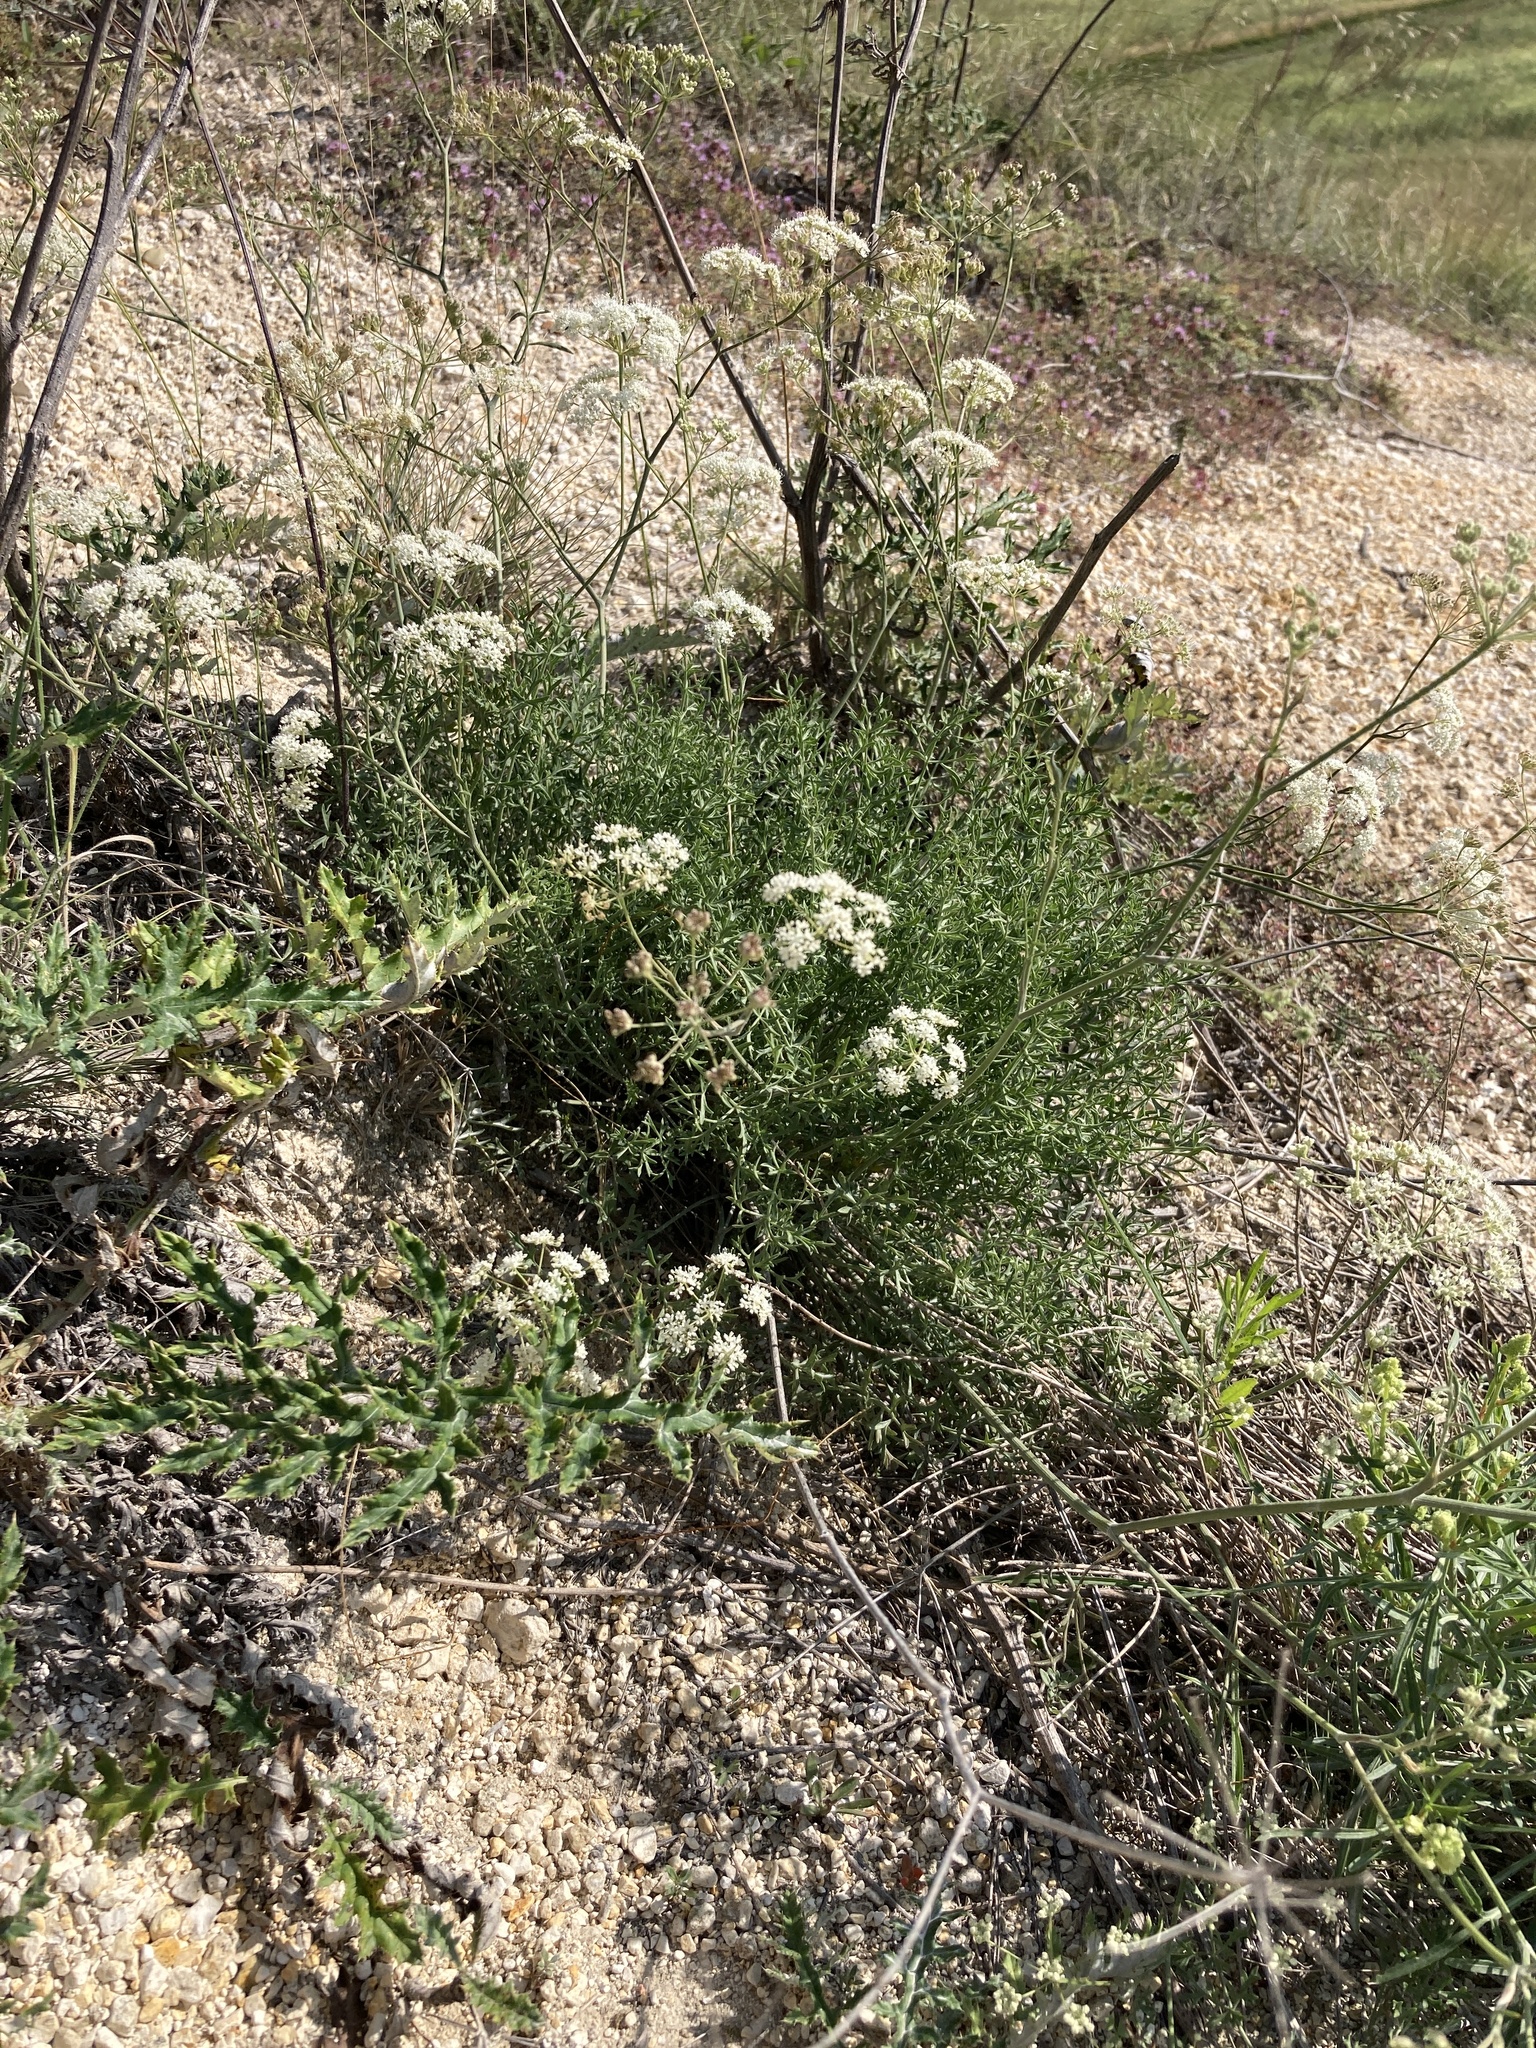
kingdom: Plantae
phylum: Tracheophyta
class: Magnoliopsida
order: Apiales
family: Apiaceae
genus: Pimpinella
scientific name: Pimpinella tragium
